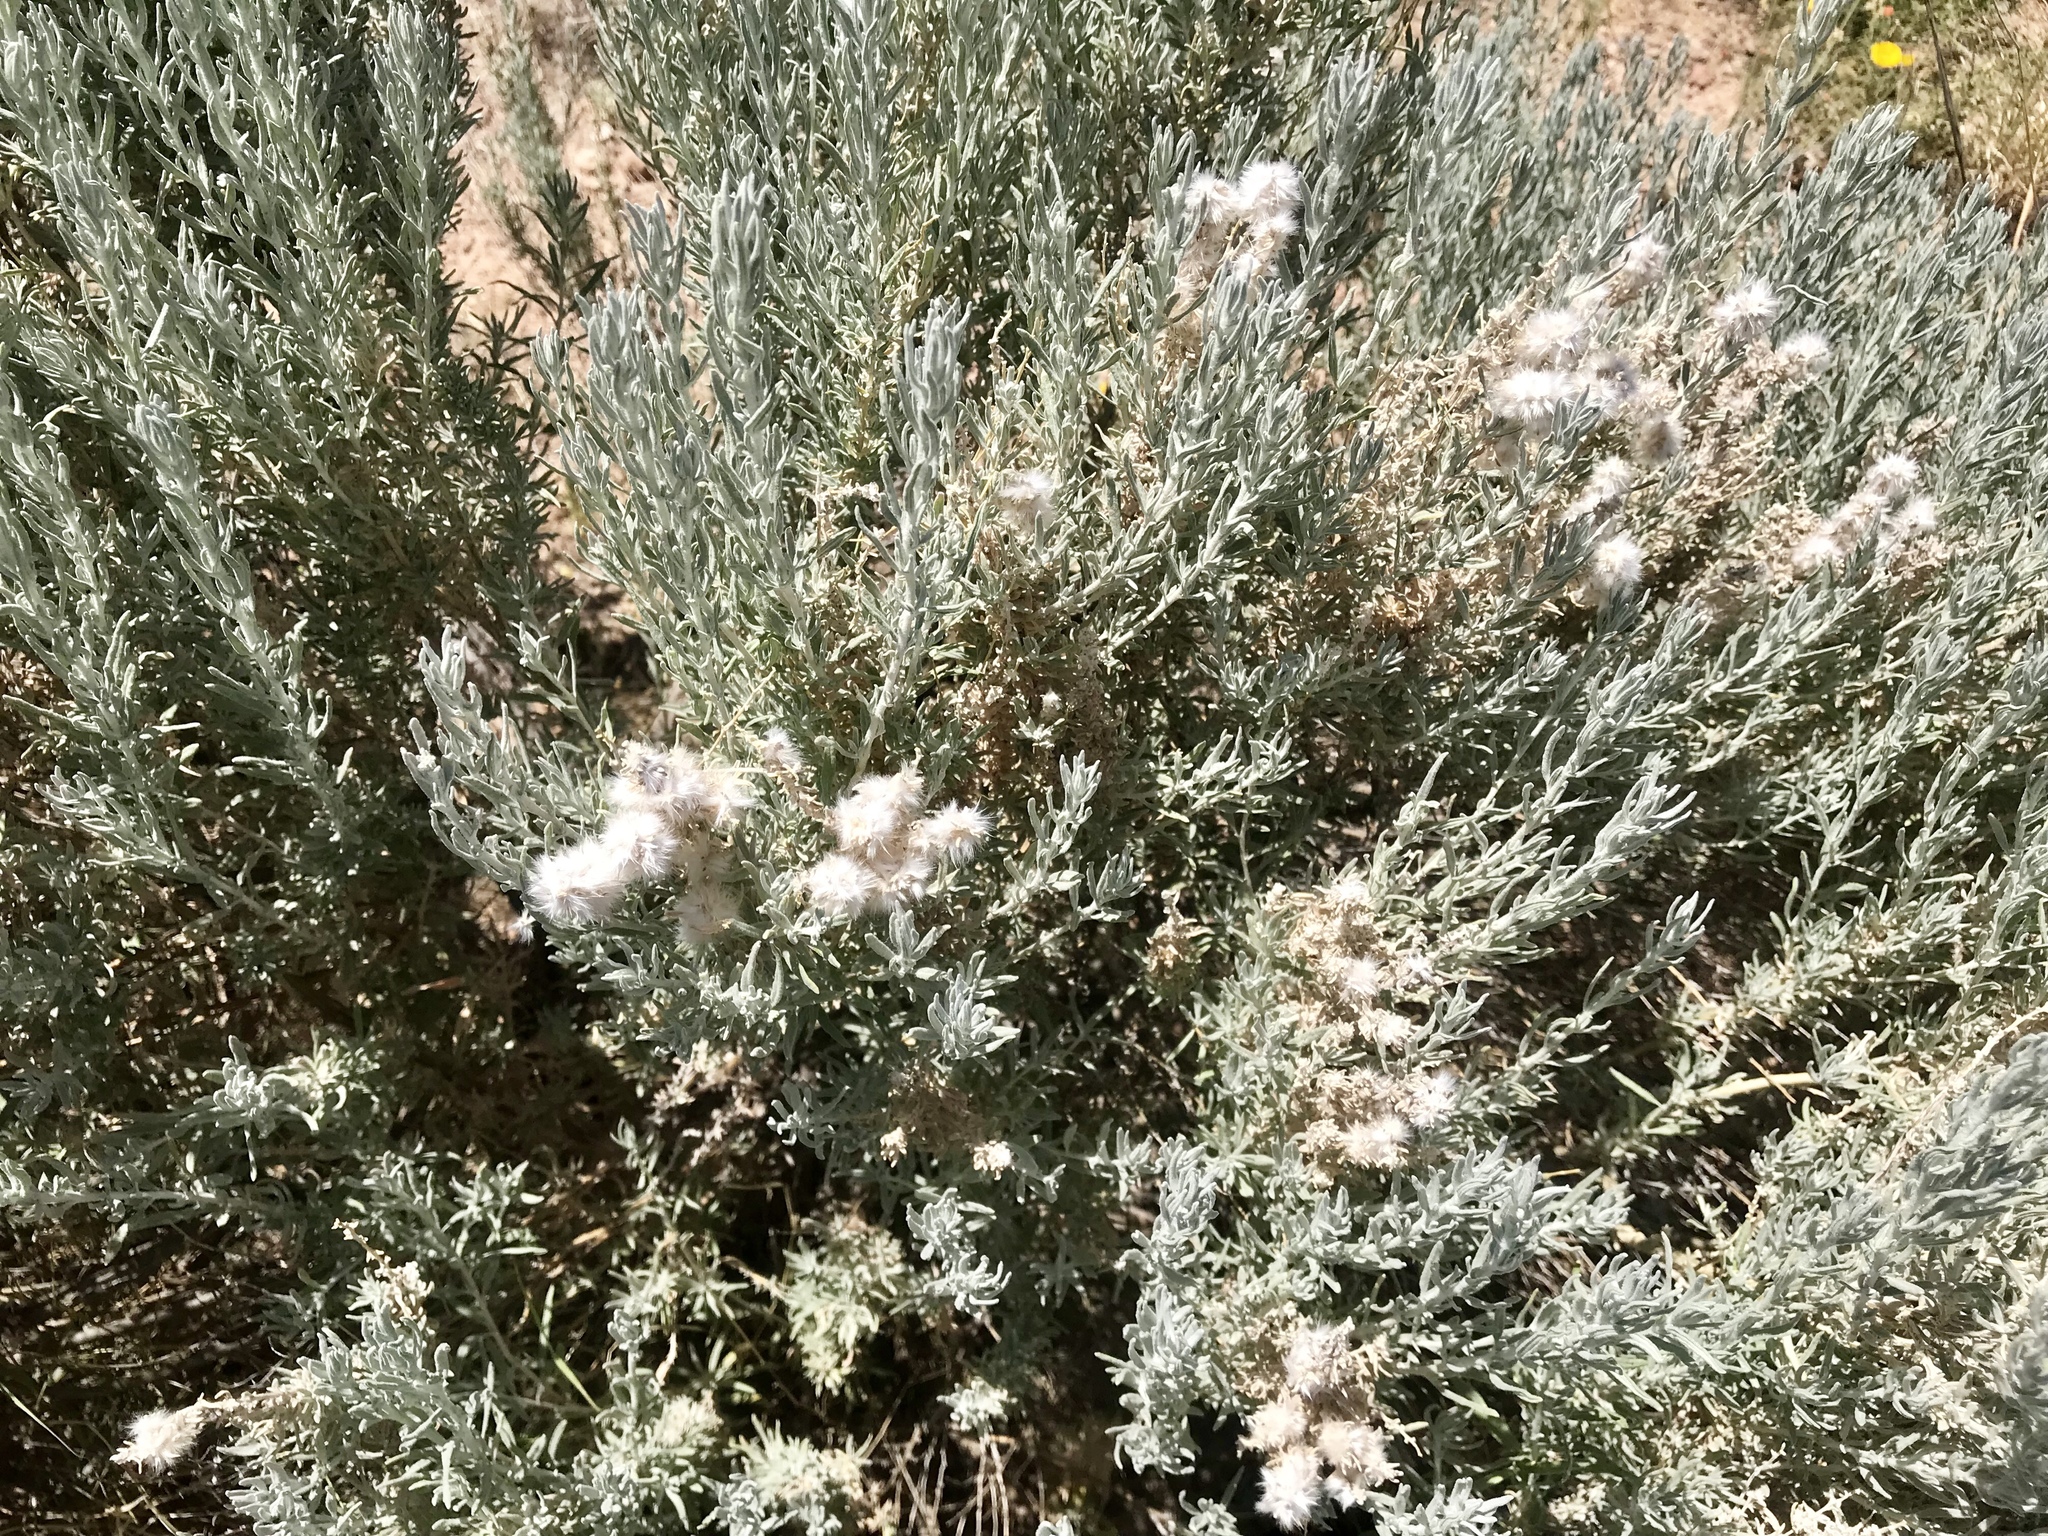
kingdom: Plantae
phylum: Tracheophyta
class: Magnoliopsida
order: Caryophyllales
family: Amaranthaceae
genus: Krascheninnikovia
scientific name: Krascheninnikovia lanata
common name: Winterfat
